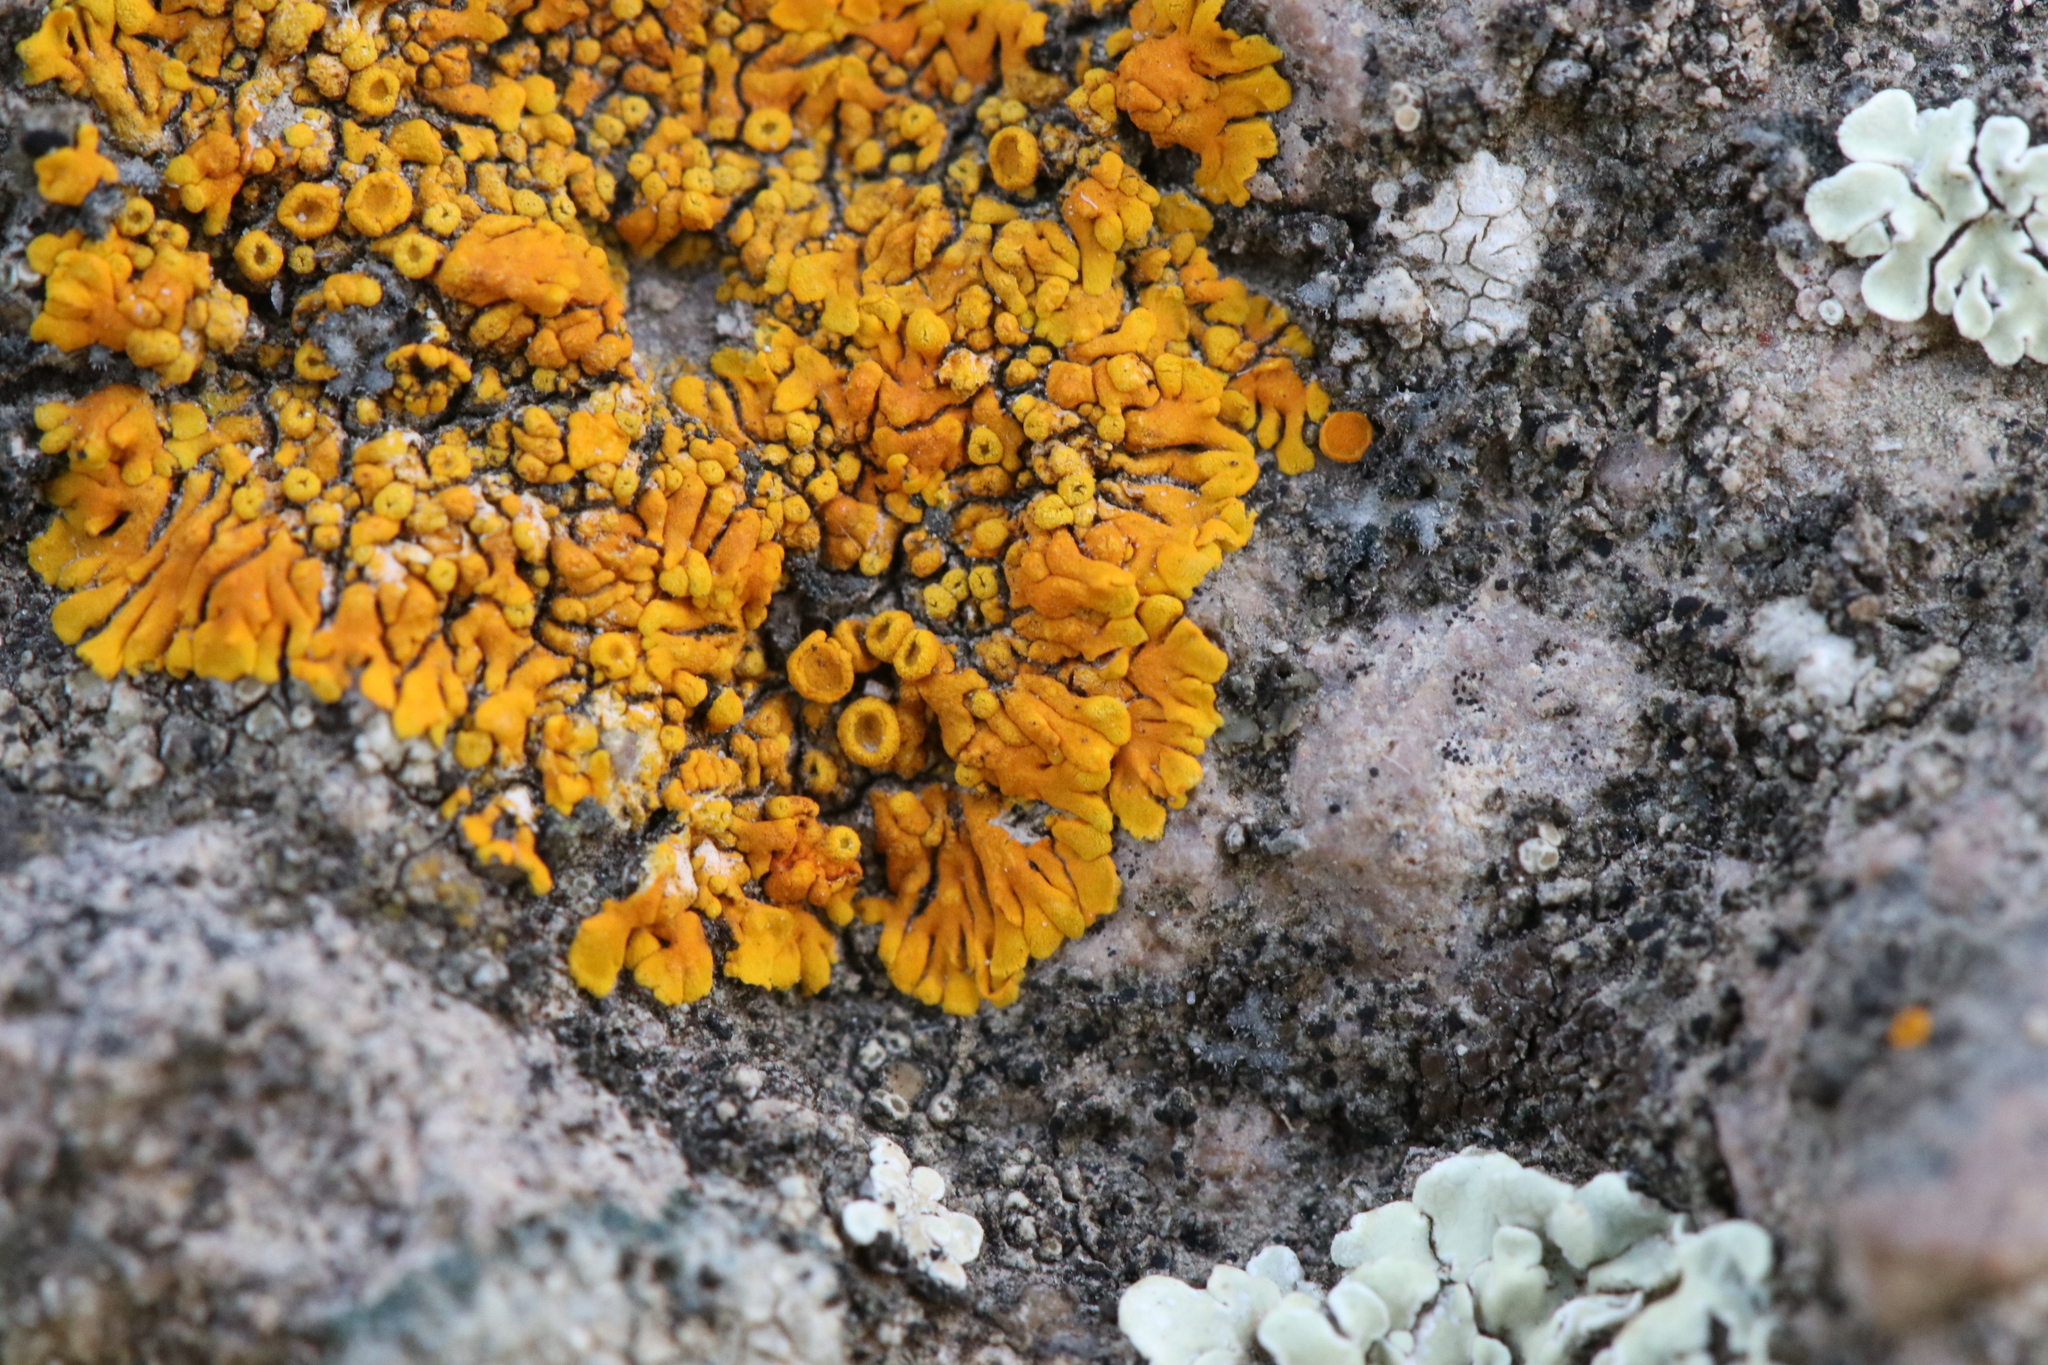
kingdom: Fungi
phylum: Ascomycota
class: Lecanoromycetes
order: Teloschistales
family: Teloschistaceae
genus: Igneoplaca
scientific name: Igneoplaca ignea
